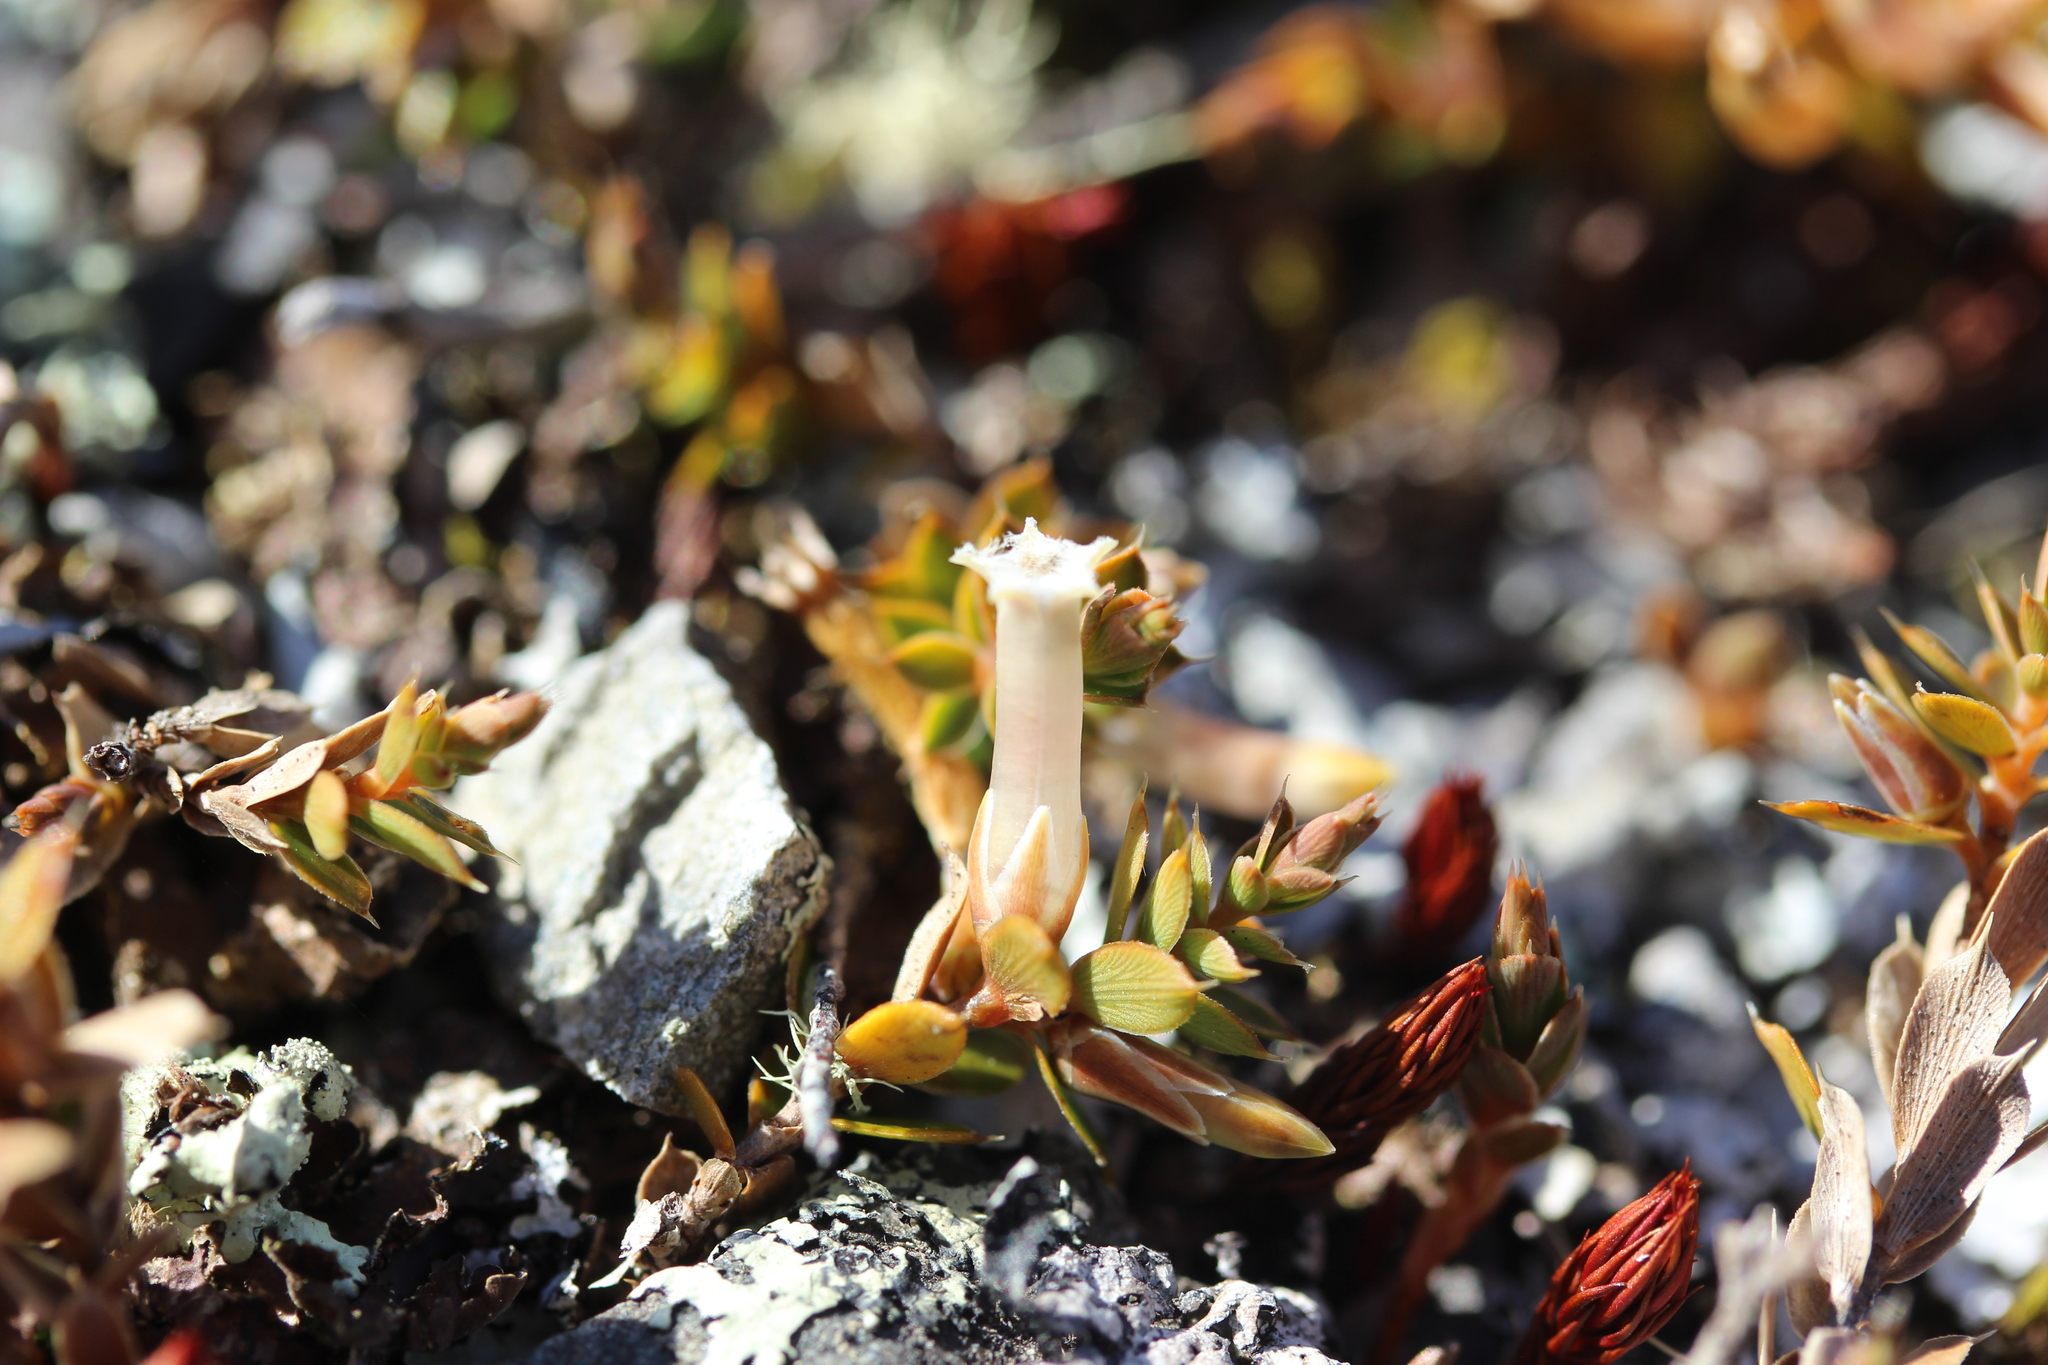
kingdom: Plantae
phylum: Tracheophyta
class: Magnoliopsida
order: Ericales
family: Ericaceae
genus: Styphelia
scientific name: Styphelia nesophila
